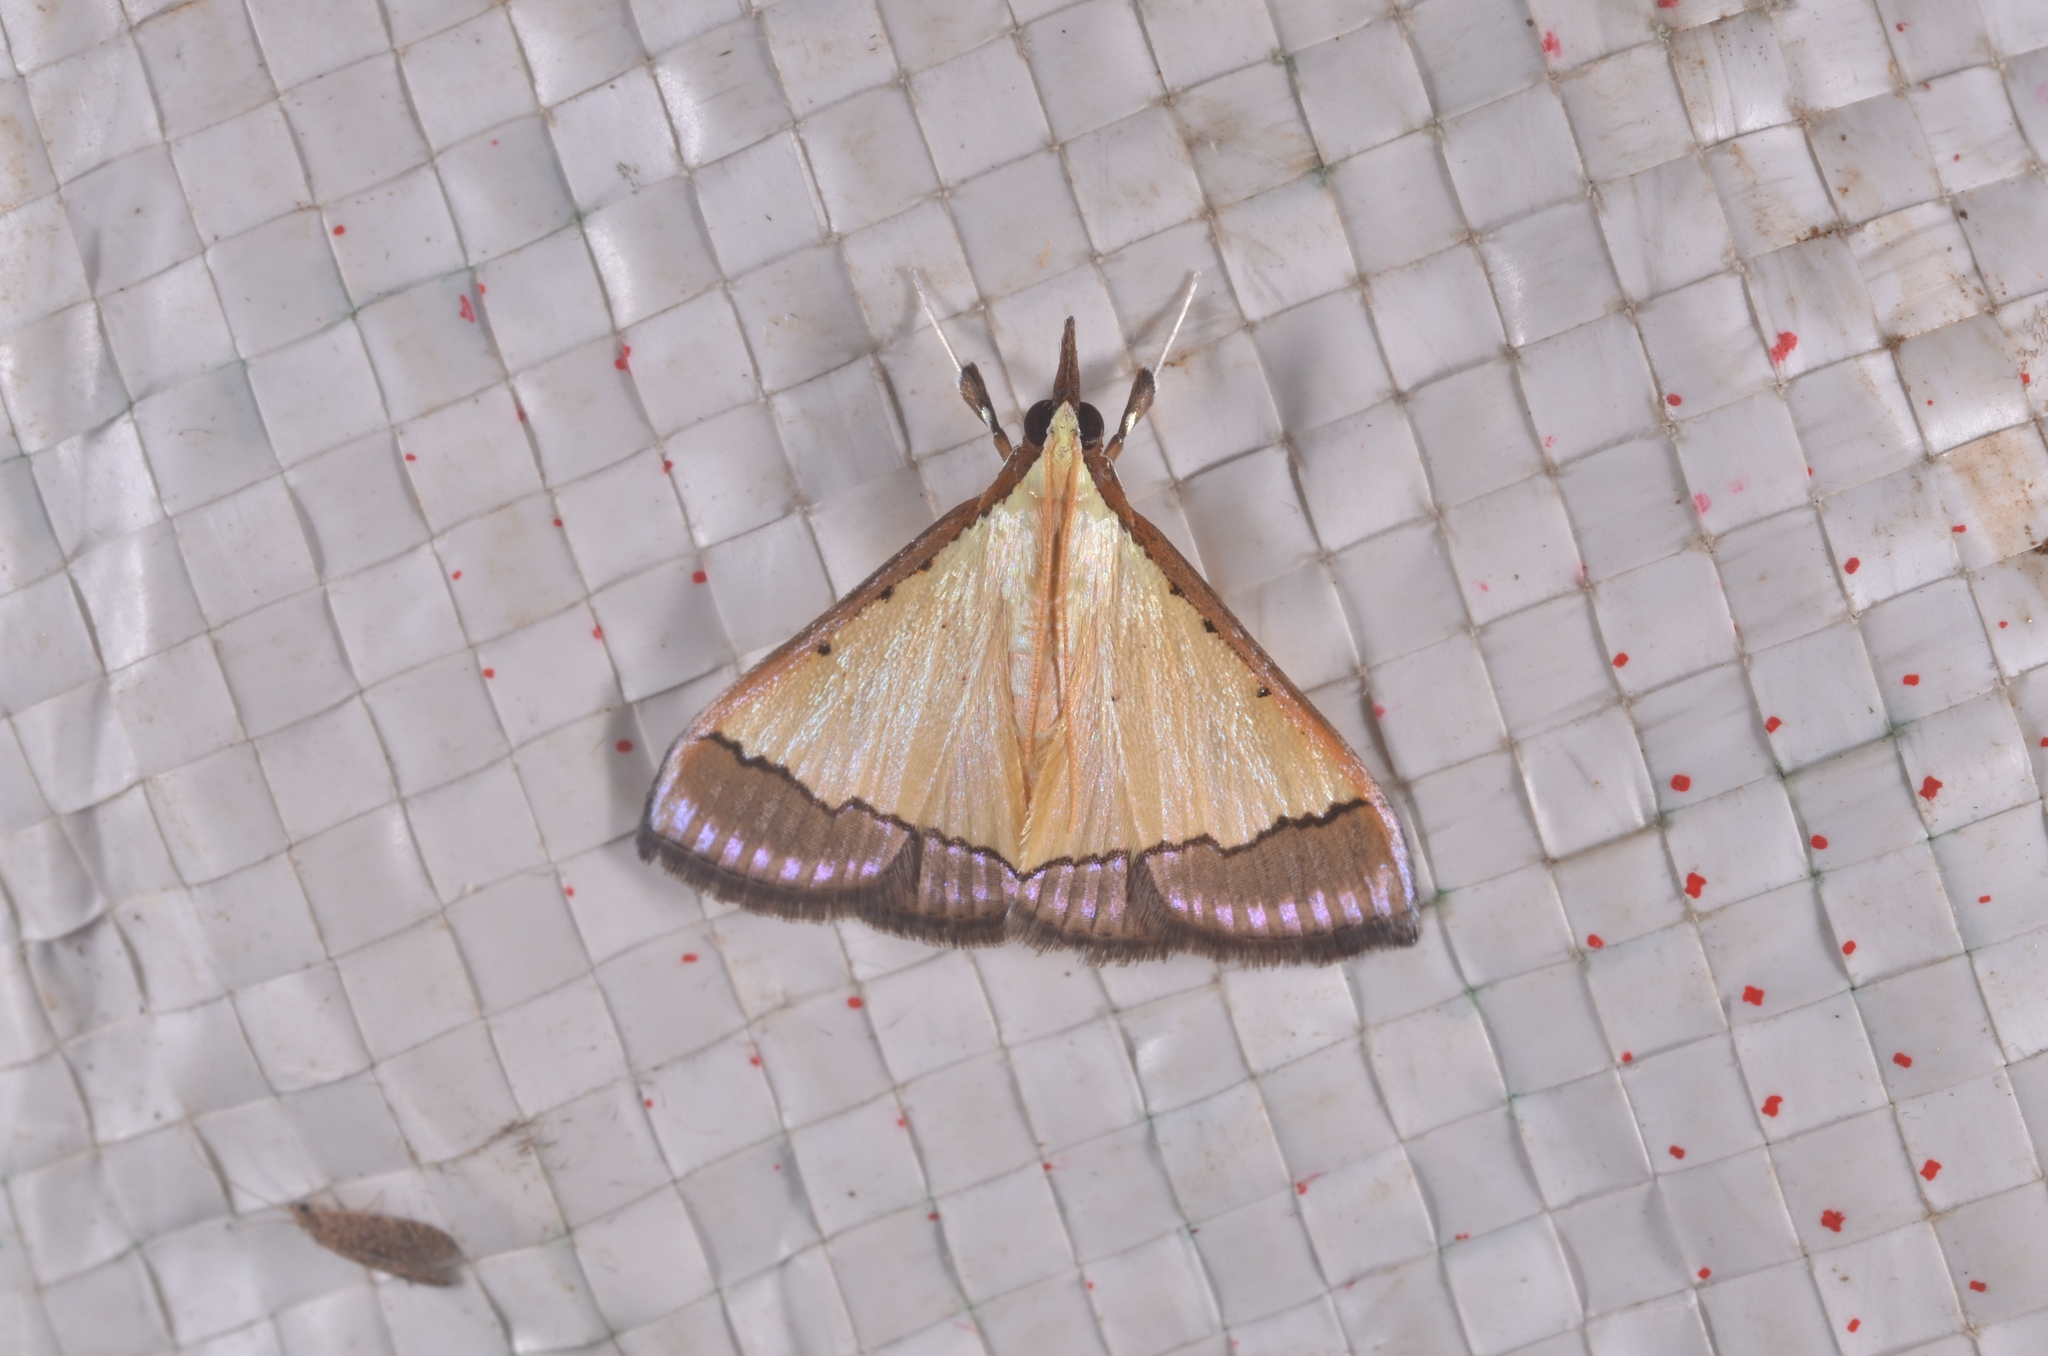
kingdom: Animalia
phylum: Arthropoda
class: Insecta
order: Lepidoptera
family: Crambidae
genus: Pseudonoorda
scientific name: Pseudonoorda nigropunctalis
